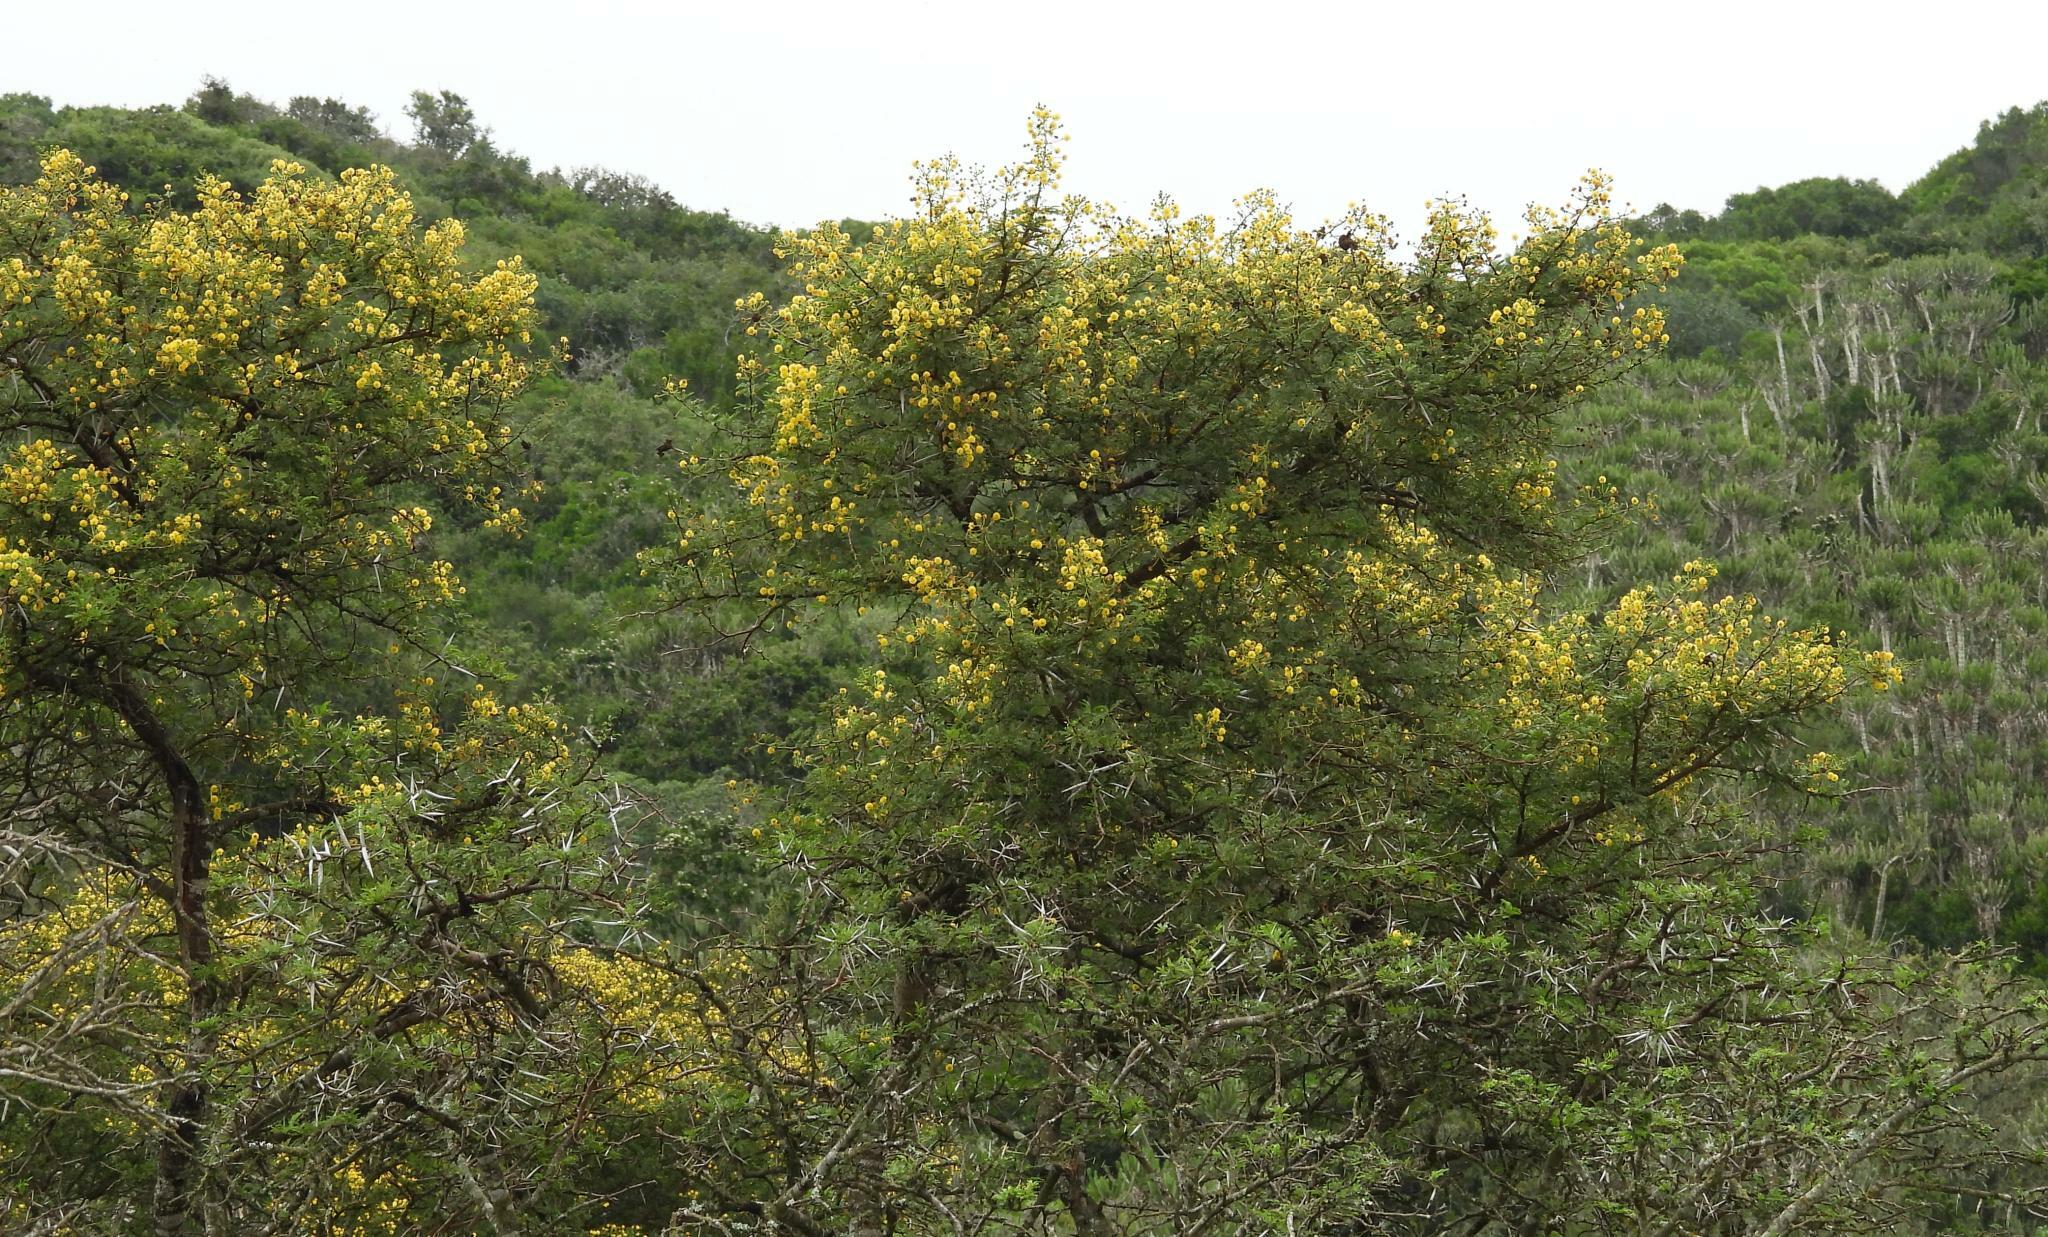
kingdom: Plantae
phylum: Tracheophyta
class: Magnoliopsida
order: Fabales
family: Fabaceae
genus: Vachellia
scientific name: Vachellia karroo
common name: Sweet thorn
